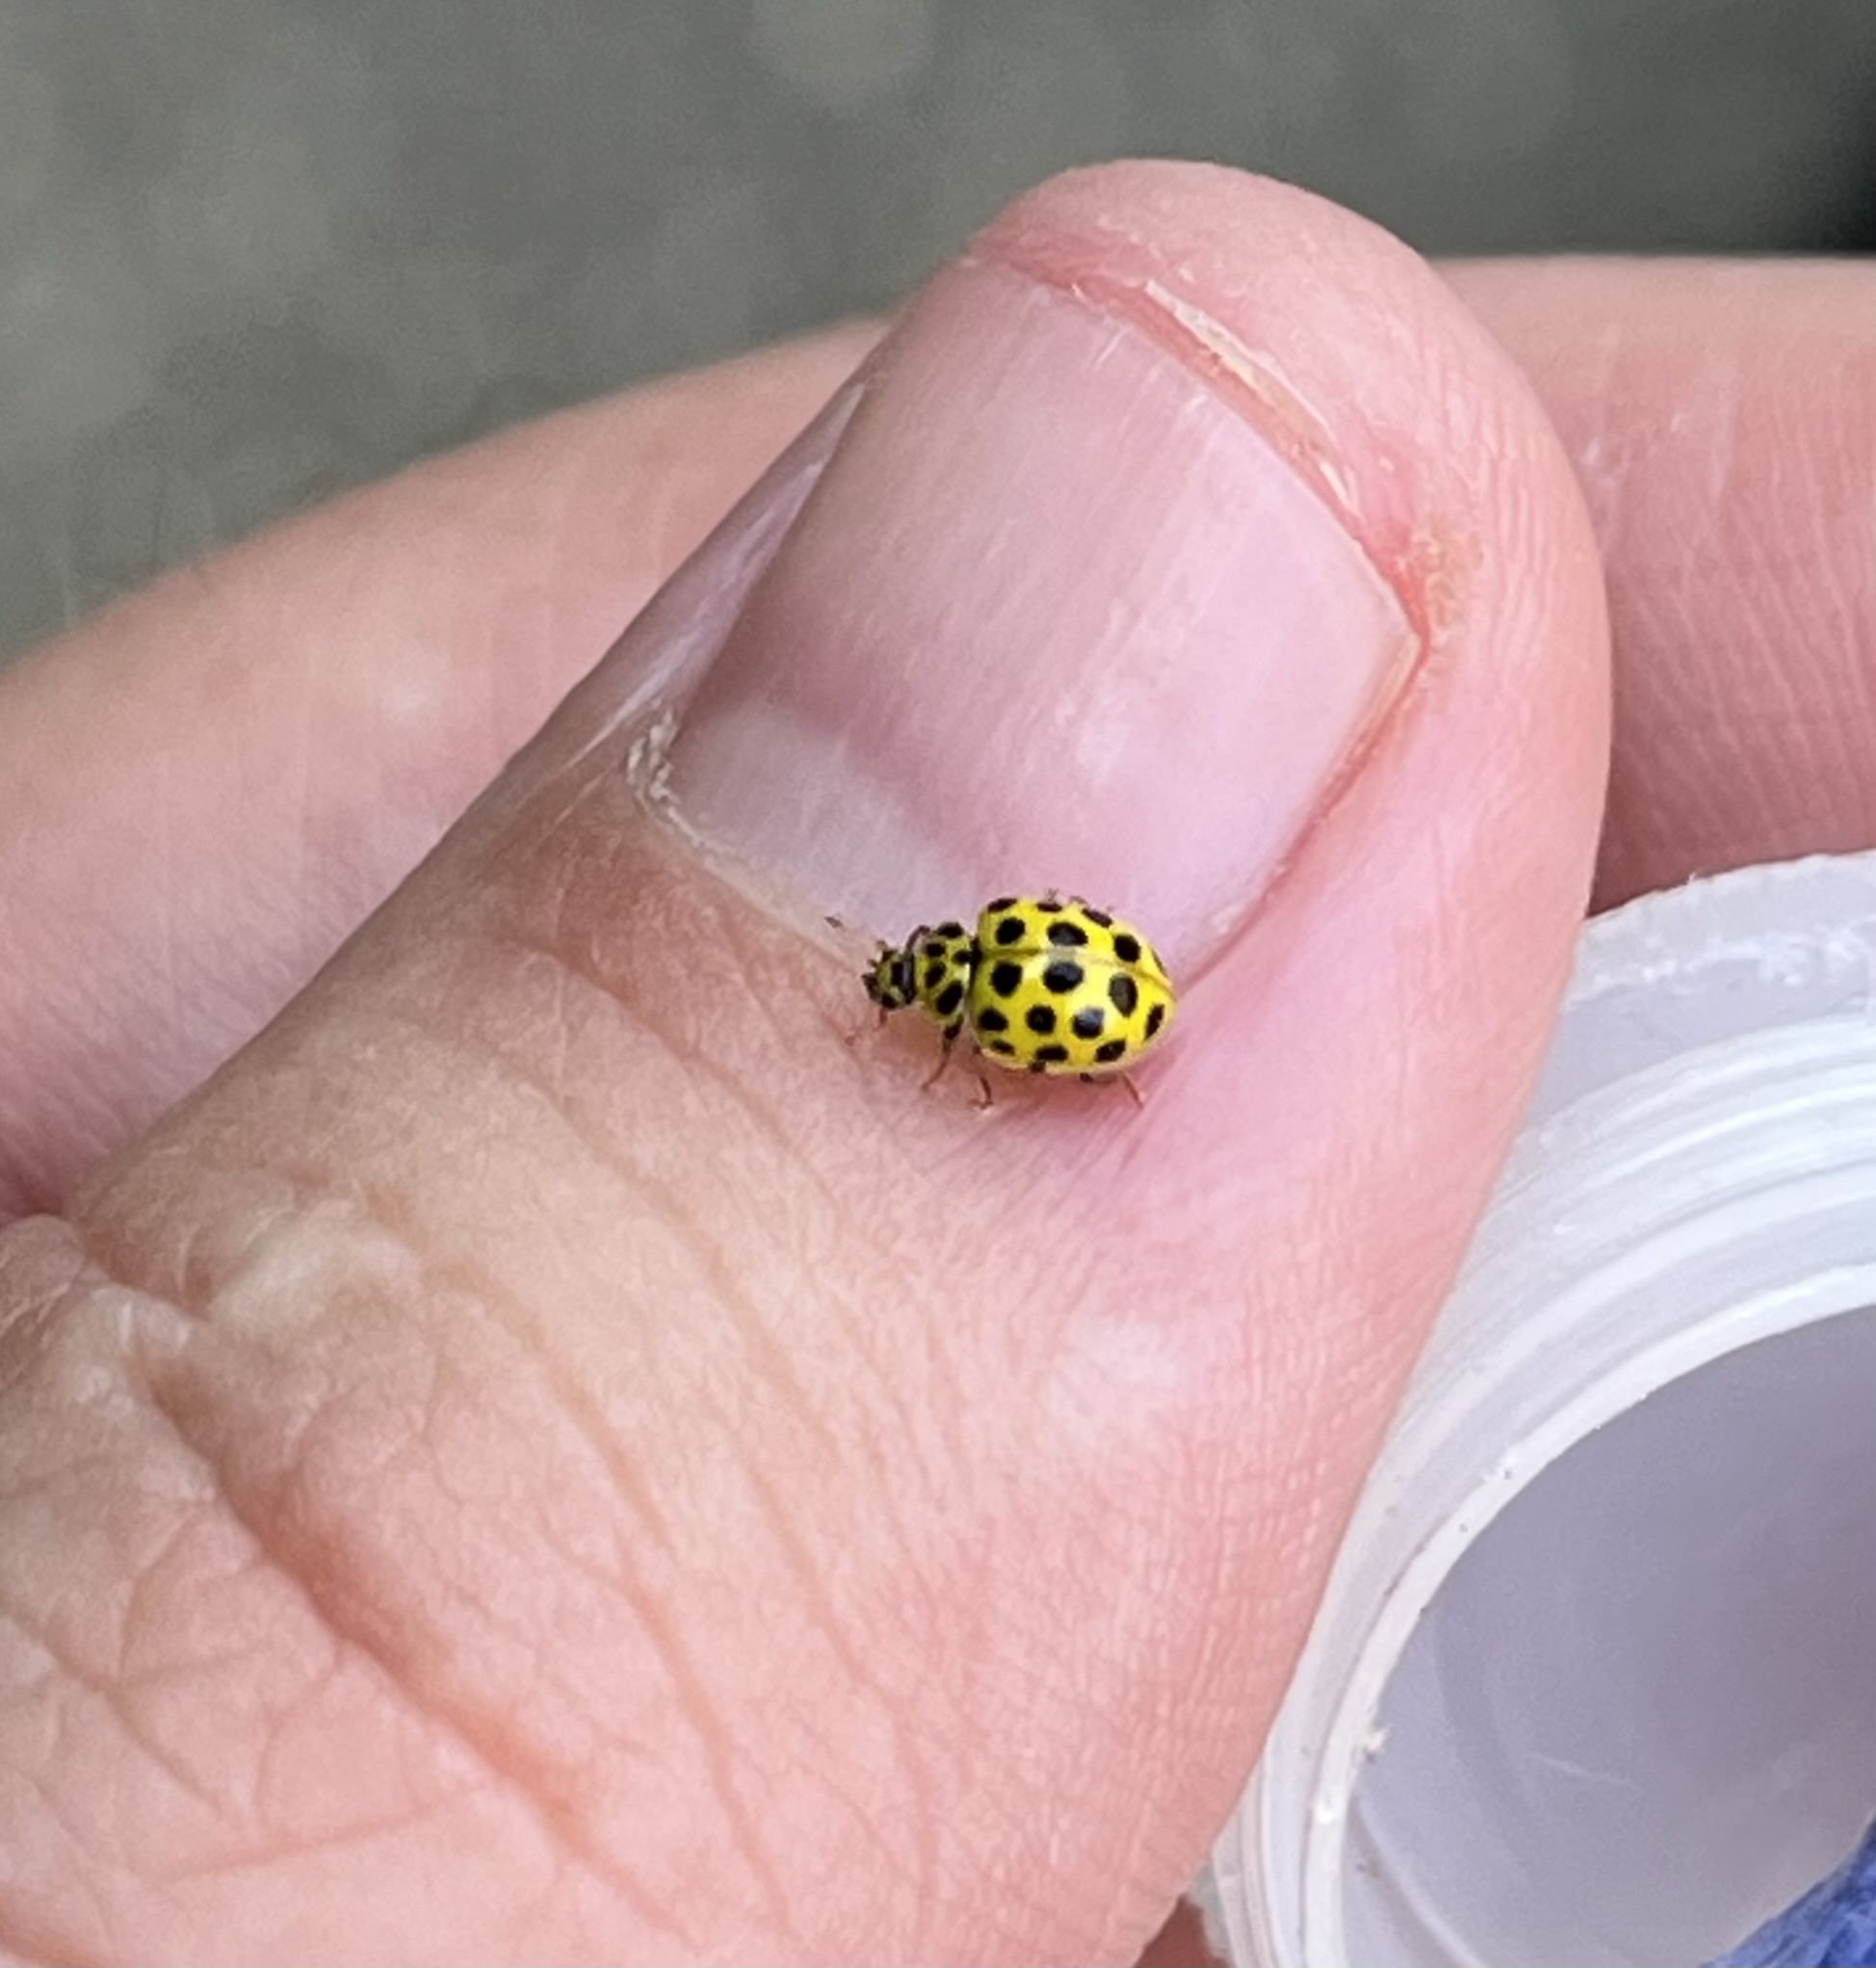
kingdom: Animalia
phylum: Arthropoda
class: Insecta
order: Coleoptera
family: Coccinellidae
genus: Psyllobora
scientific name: Psyllobora vigintiduopunctata
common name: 22-spot ladybird
